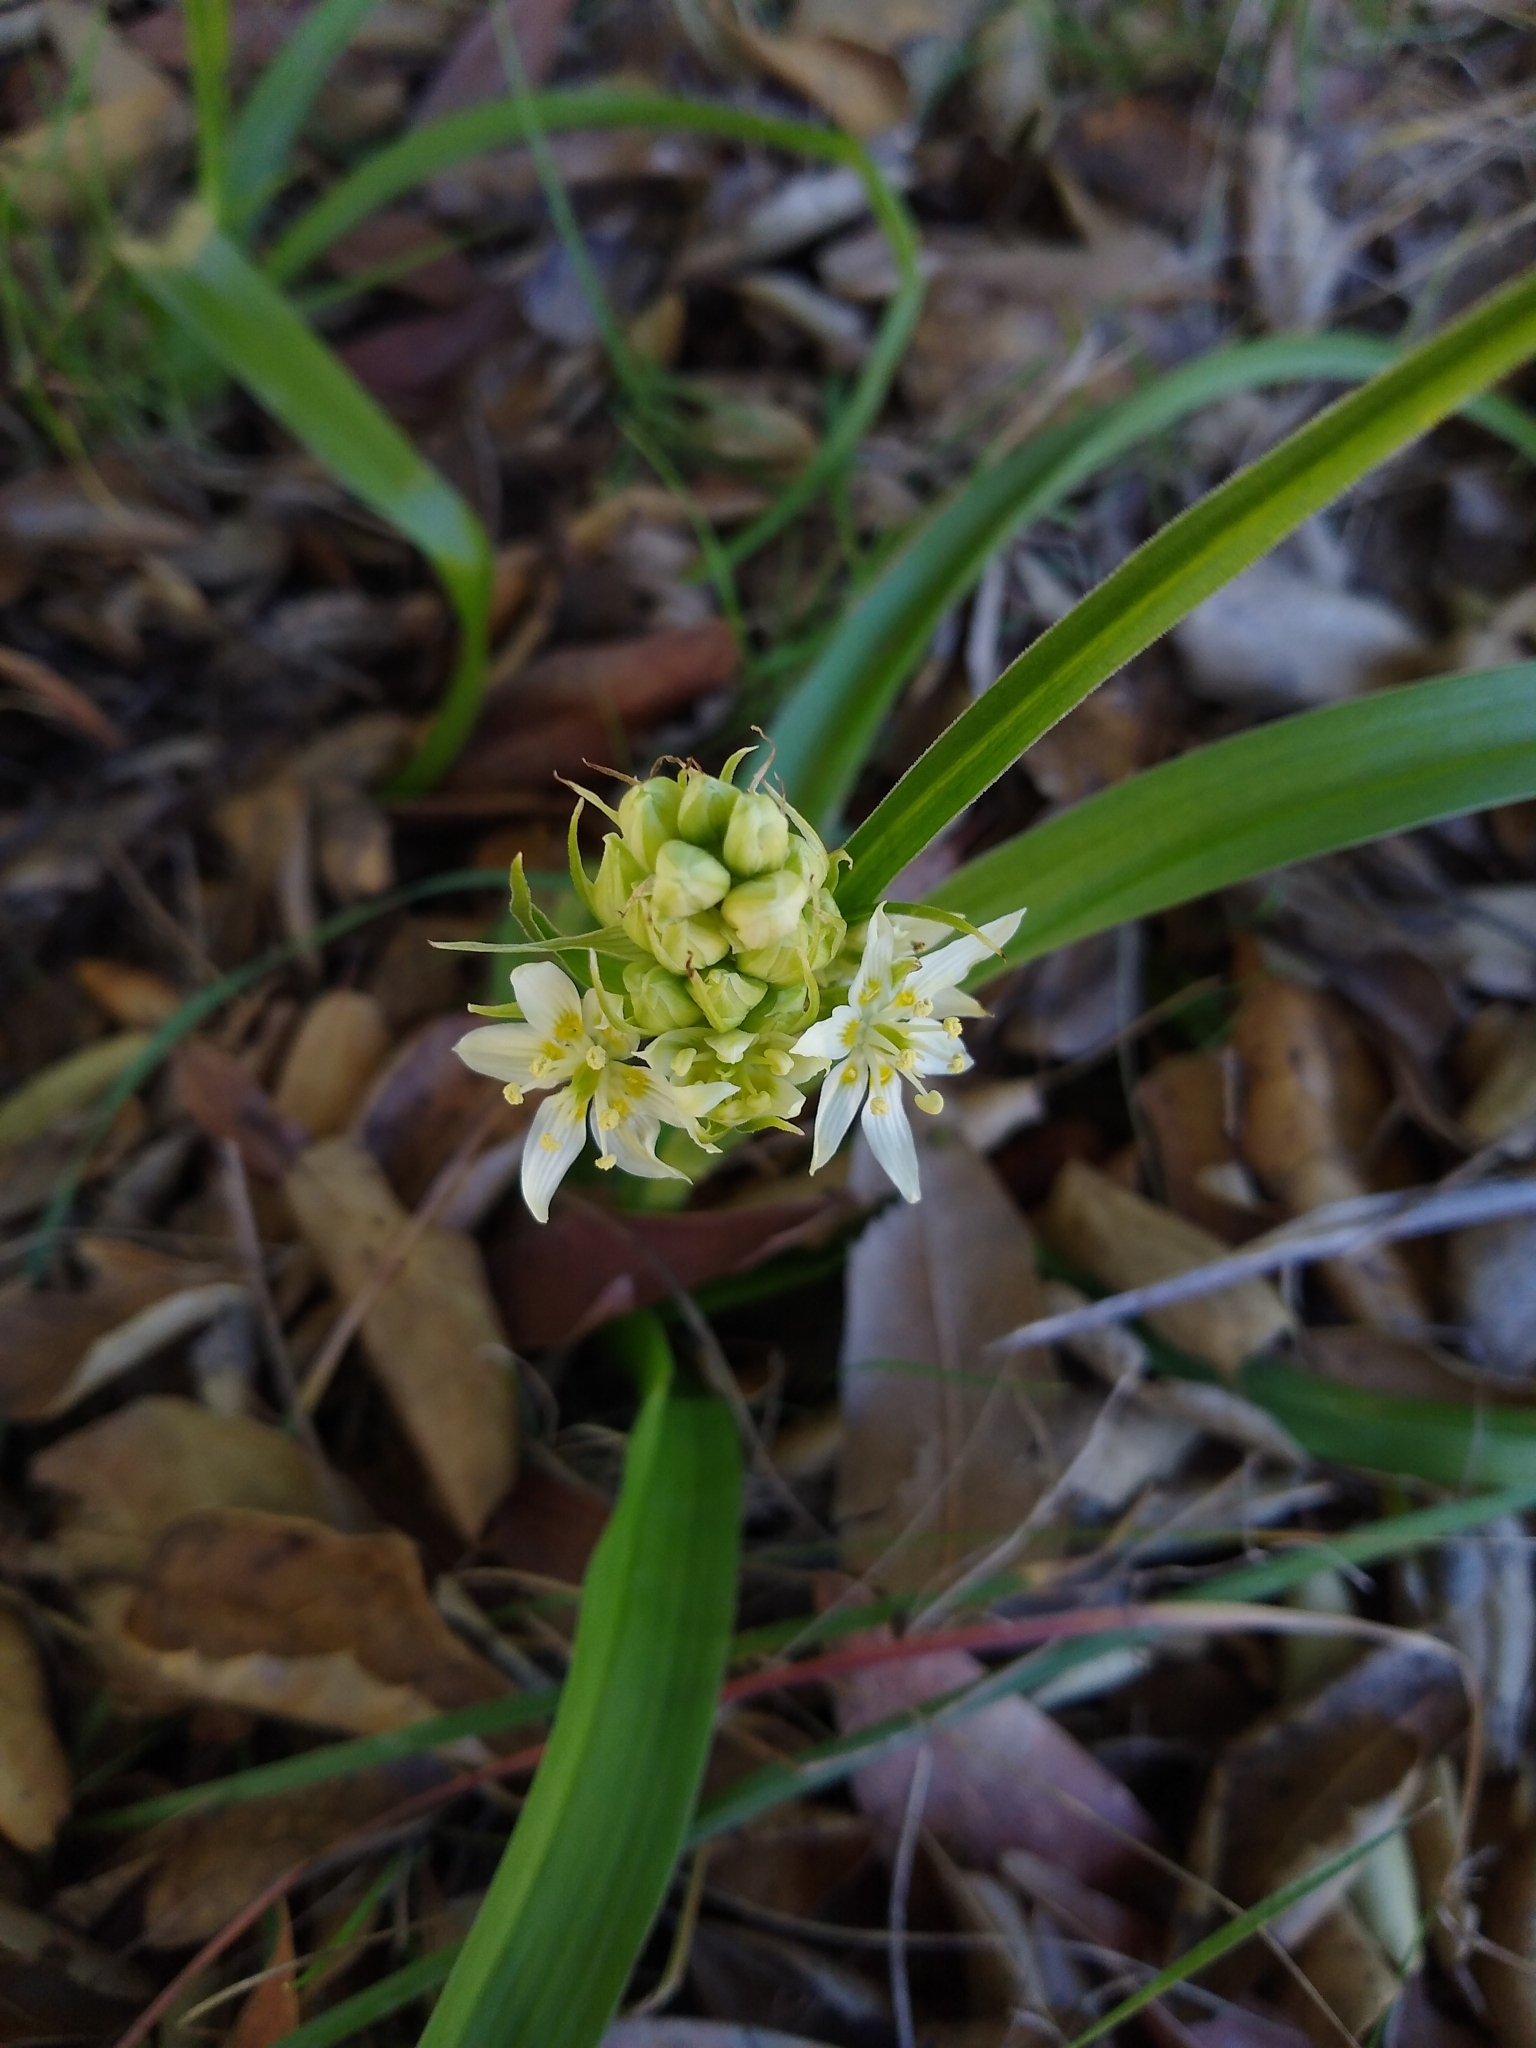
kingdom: Plantae
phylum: Tracheophyta
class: Liliopsida
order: Liliales
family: Melanthiaceae
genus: Toxicoscordion
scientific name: Toxicoscordion fremontii
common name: Fremont's death camas
